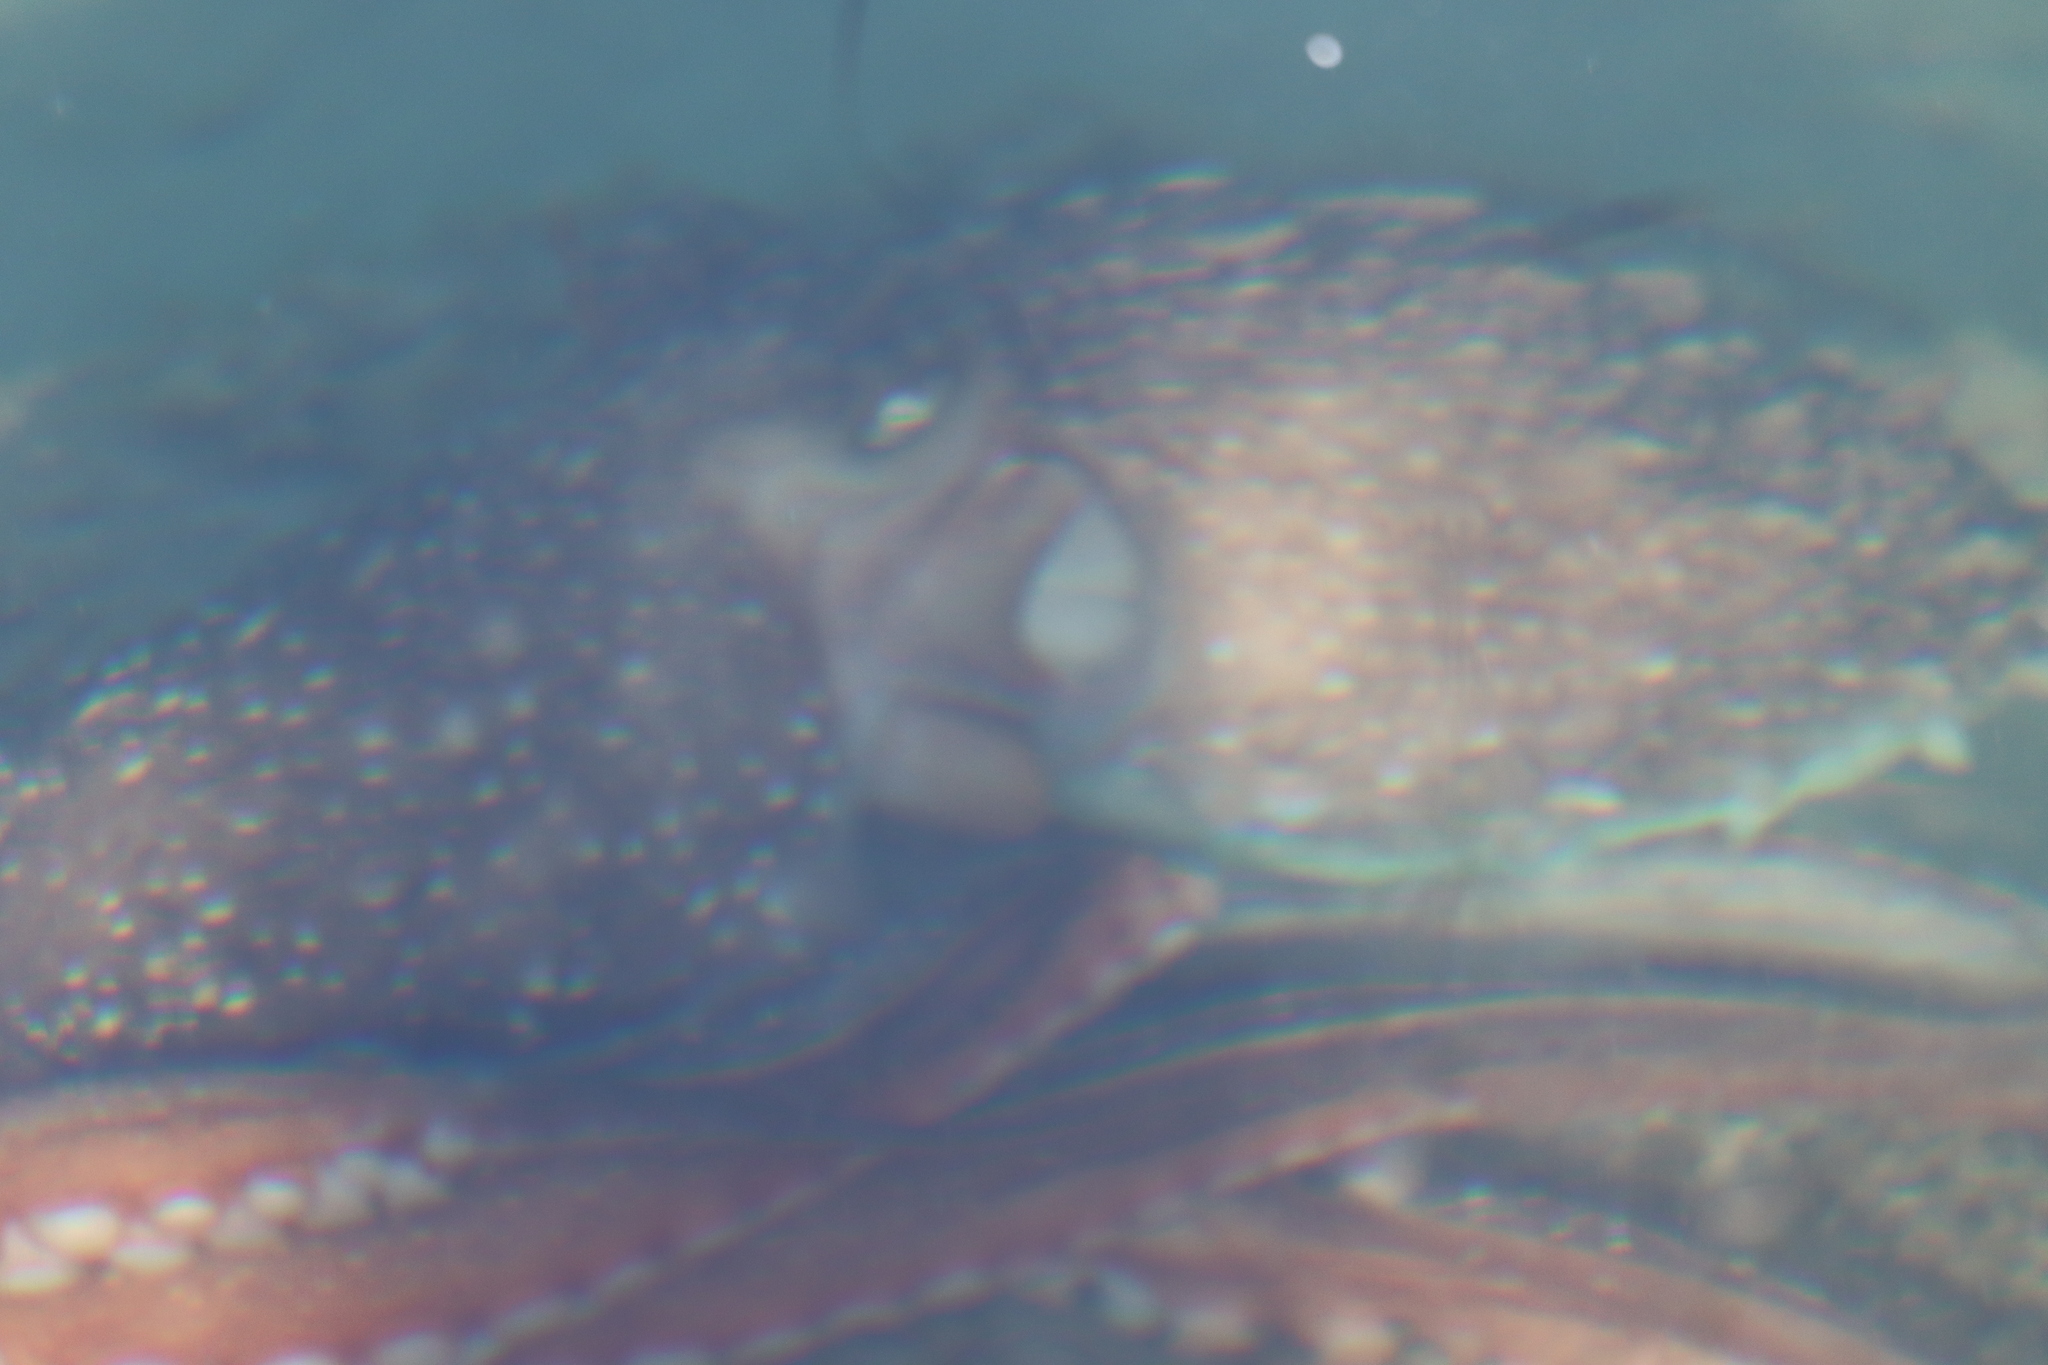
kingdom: Animalia
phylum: Mollusca
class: Cephalopoda
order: Octopoda
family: Octopodidae
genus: Macroctopus
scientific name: Macroctopus maorum
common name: Maori octopus
